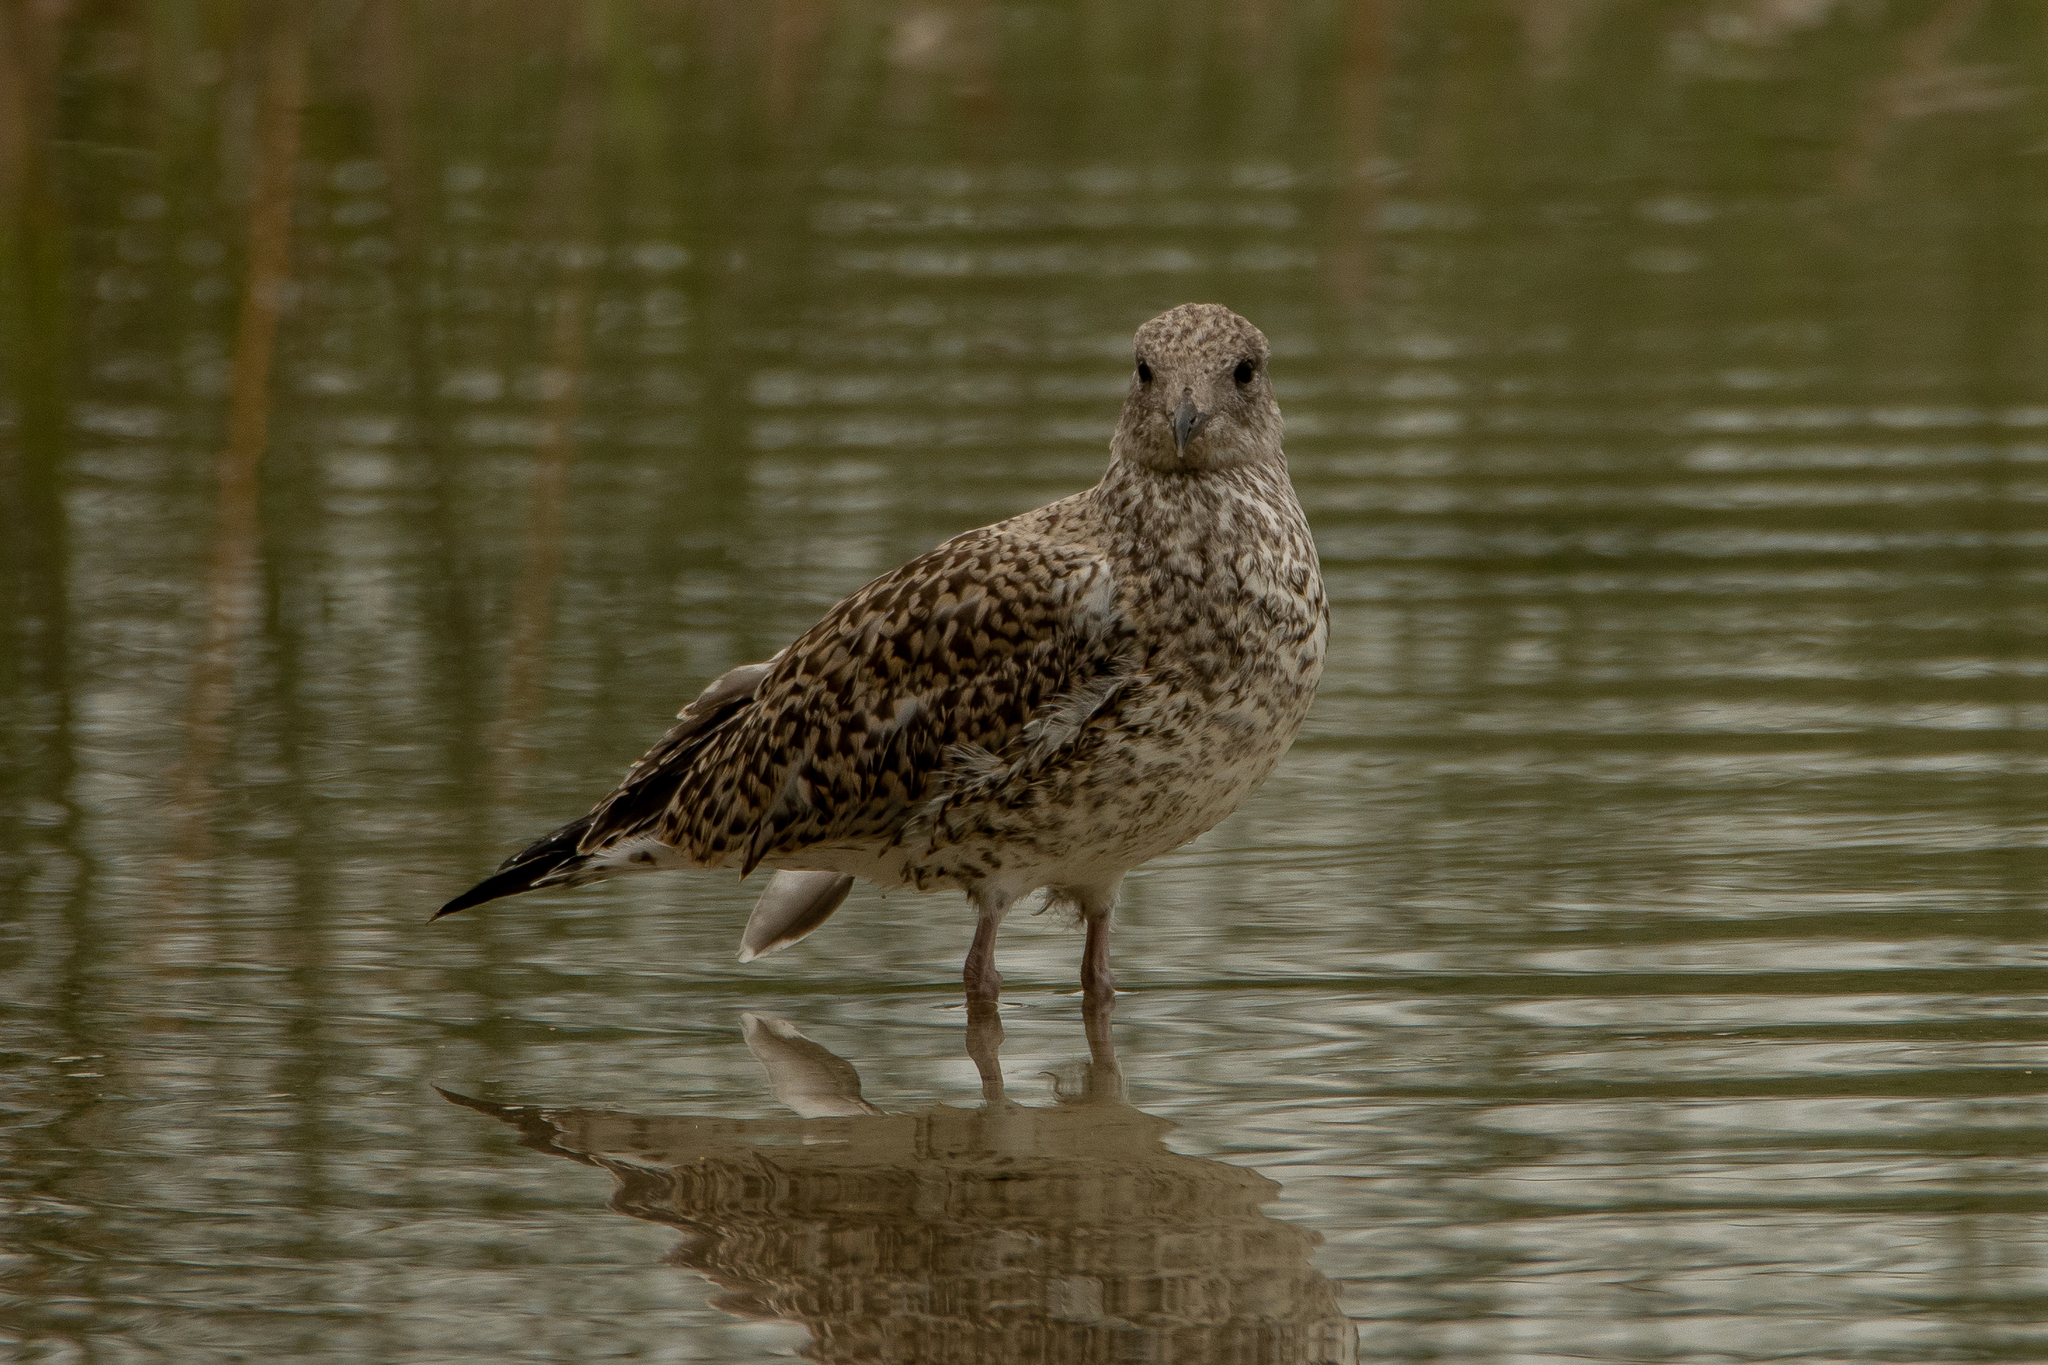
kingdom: Animalia
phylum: Chordata
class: Aves
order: Charadriiformes
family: Laridae
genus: Larus
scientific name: Larus delawarensis
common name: Ring-billed gull
